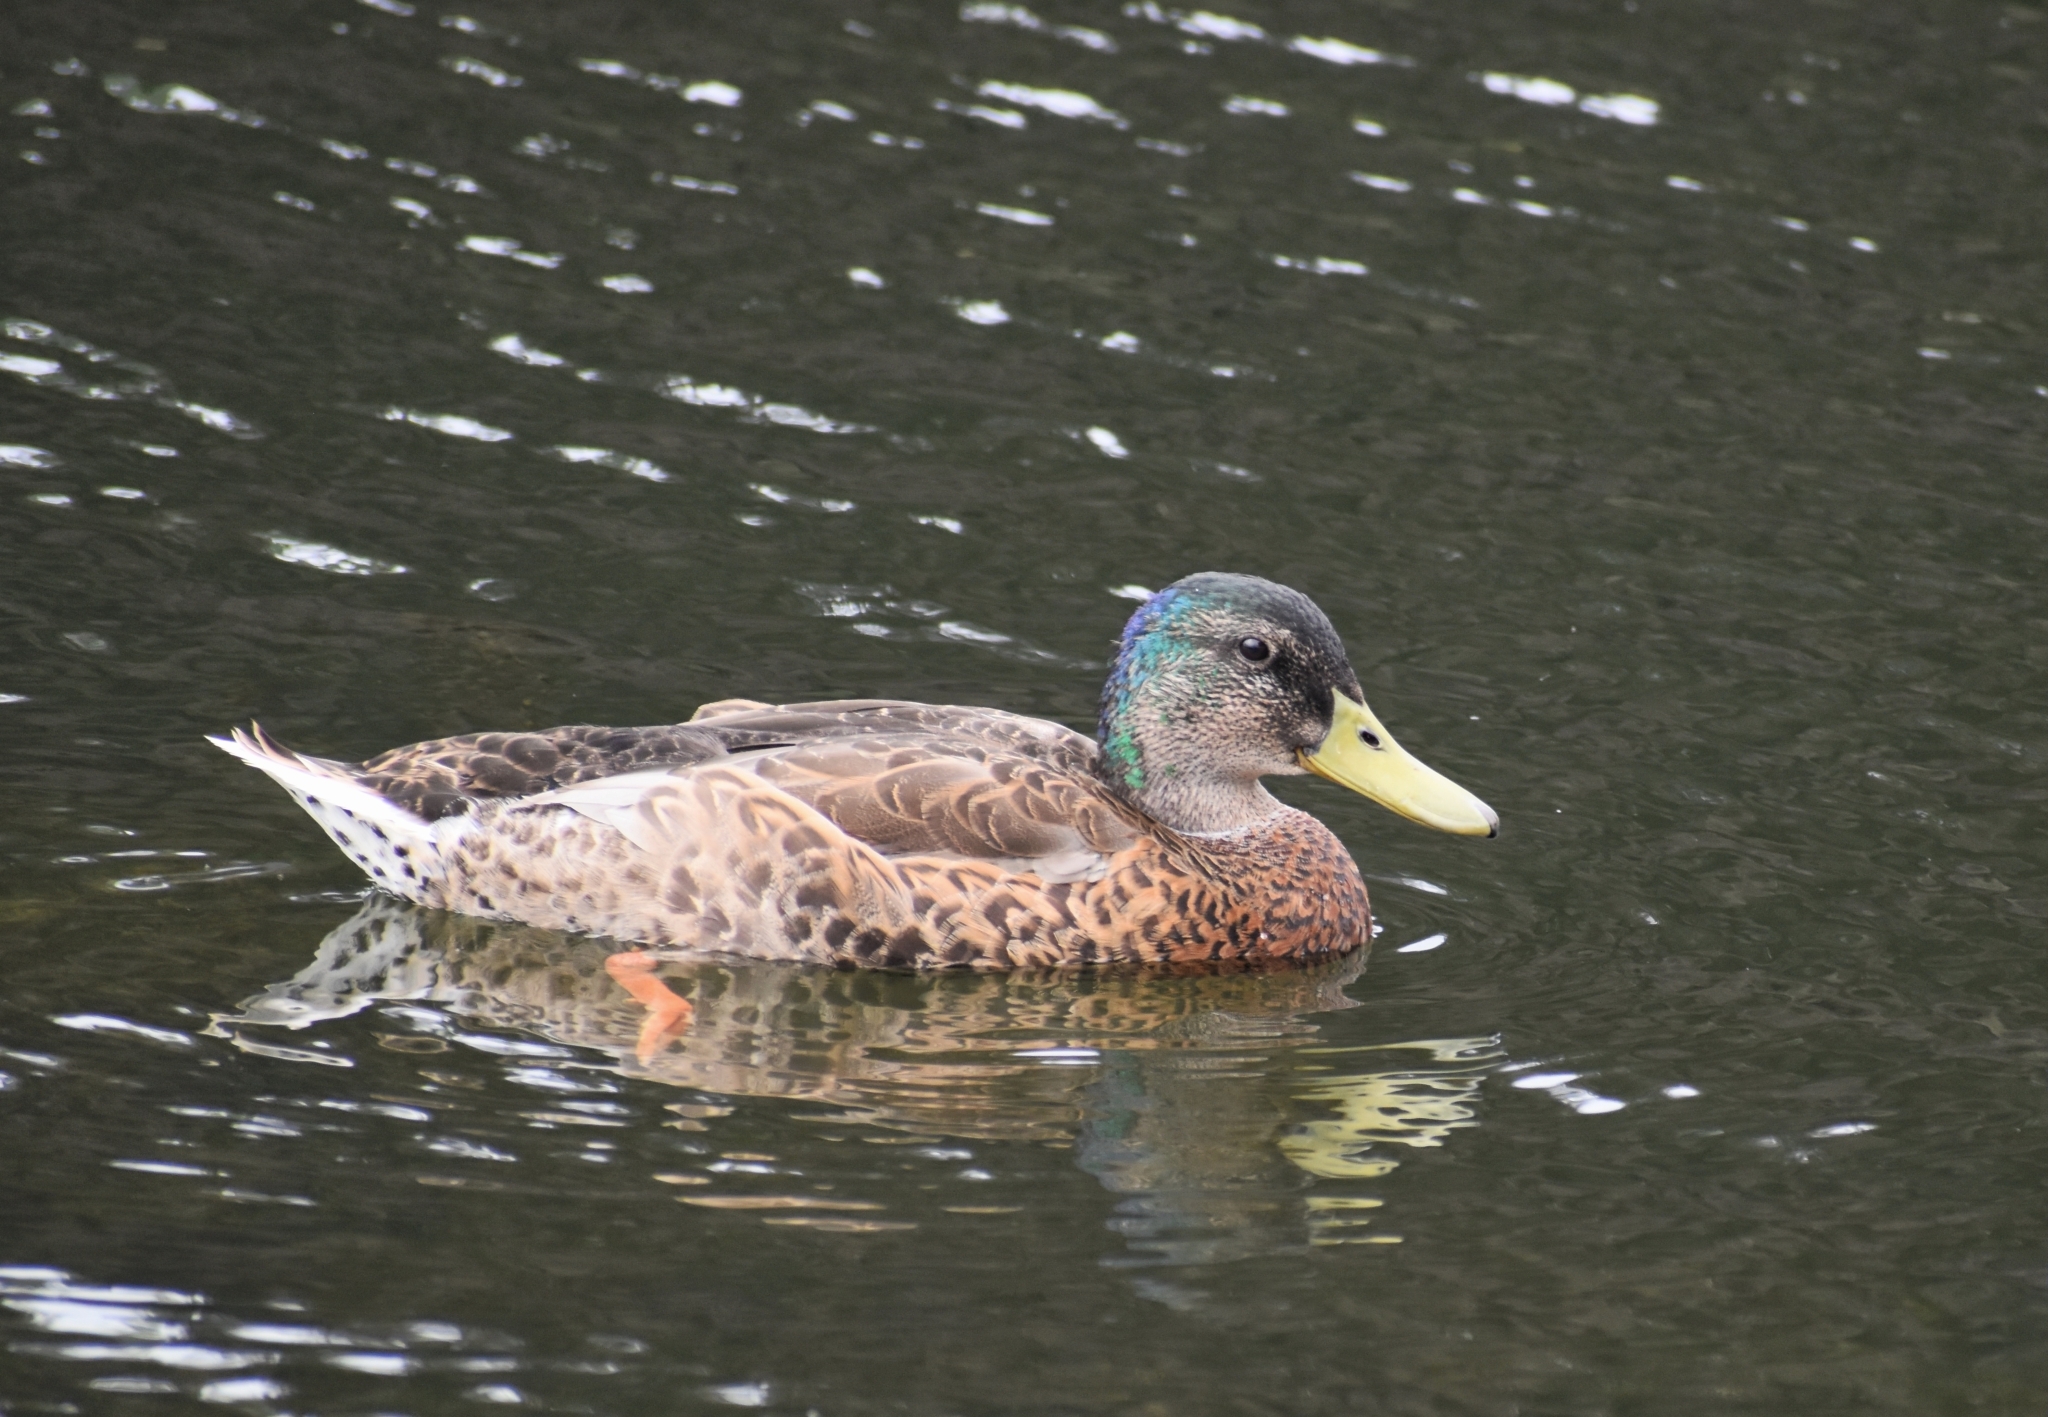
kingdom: Animalia
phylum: Chordata
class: Aves
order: Anseriformes
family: Anatidae
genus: Anas
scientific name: Anas platyrhynchos
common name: Mallard
